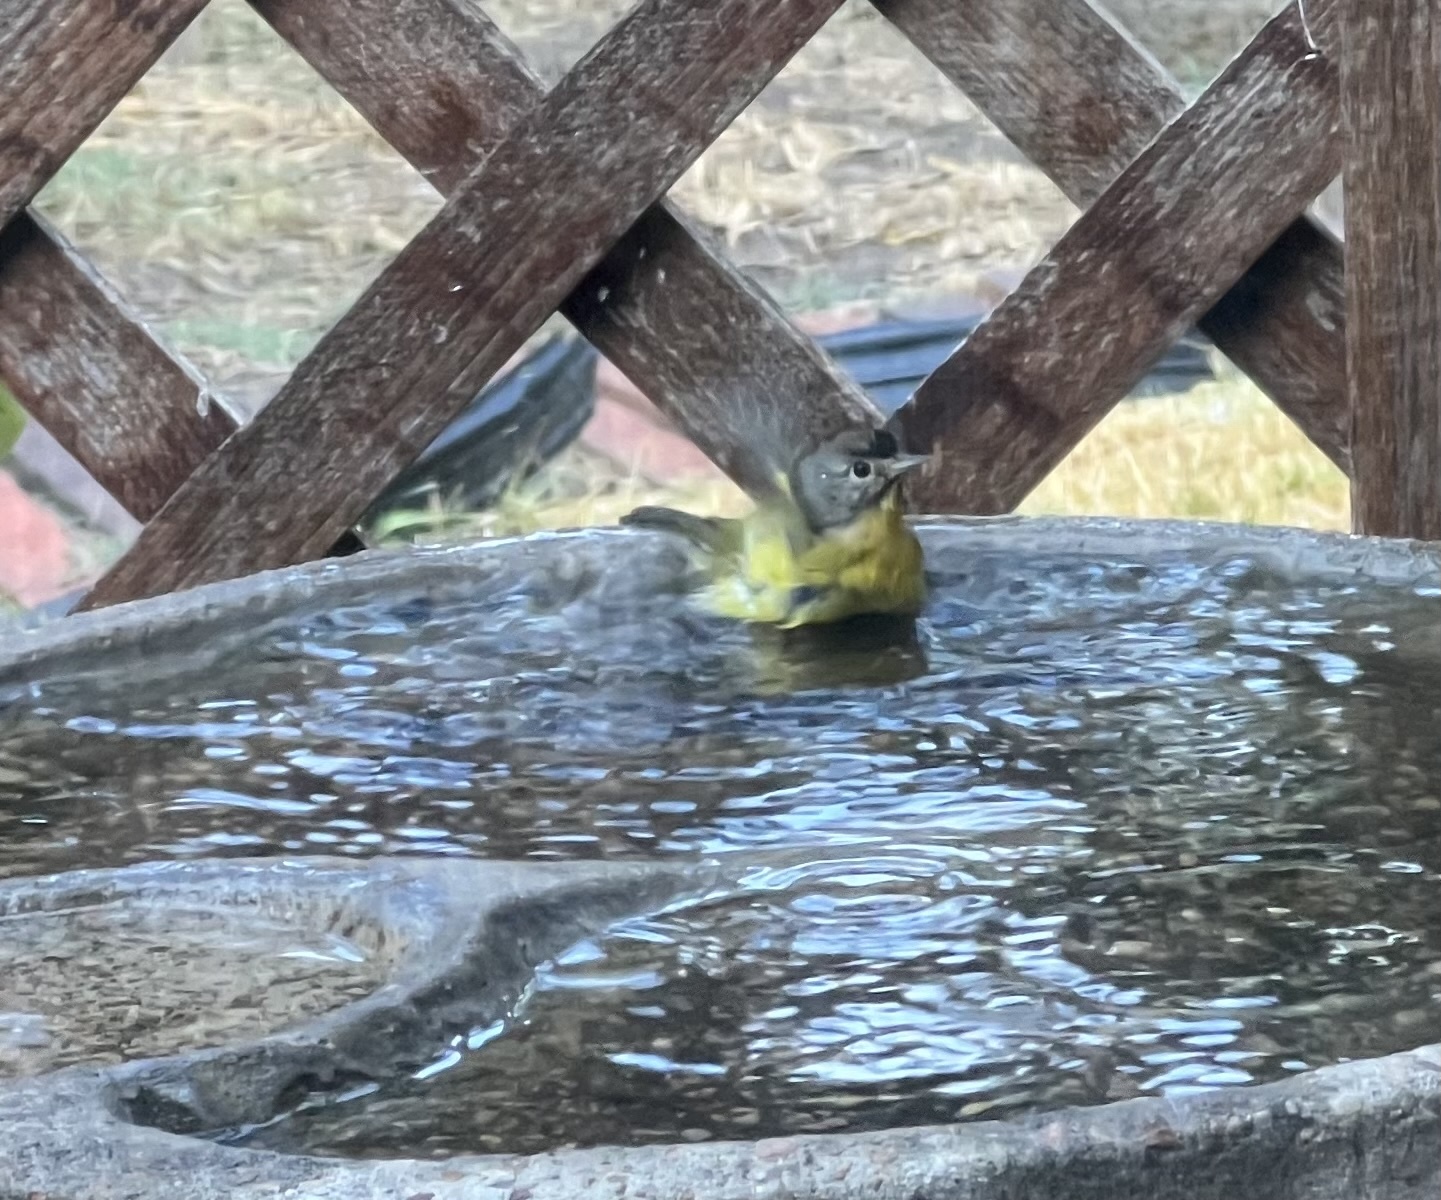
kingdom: Animalia
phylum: Chordata
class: Aves
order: Passeriformes
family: Parulidae
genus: Leiothlypis
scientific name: Leiothlypis ruficapilla
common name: Nashville warbler
